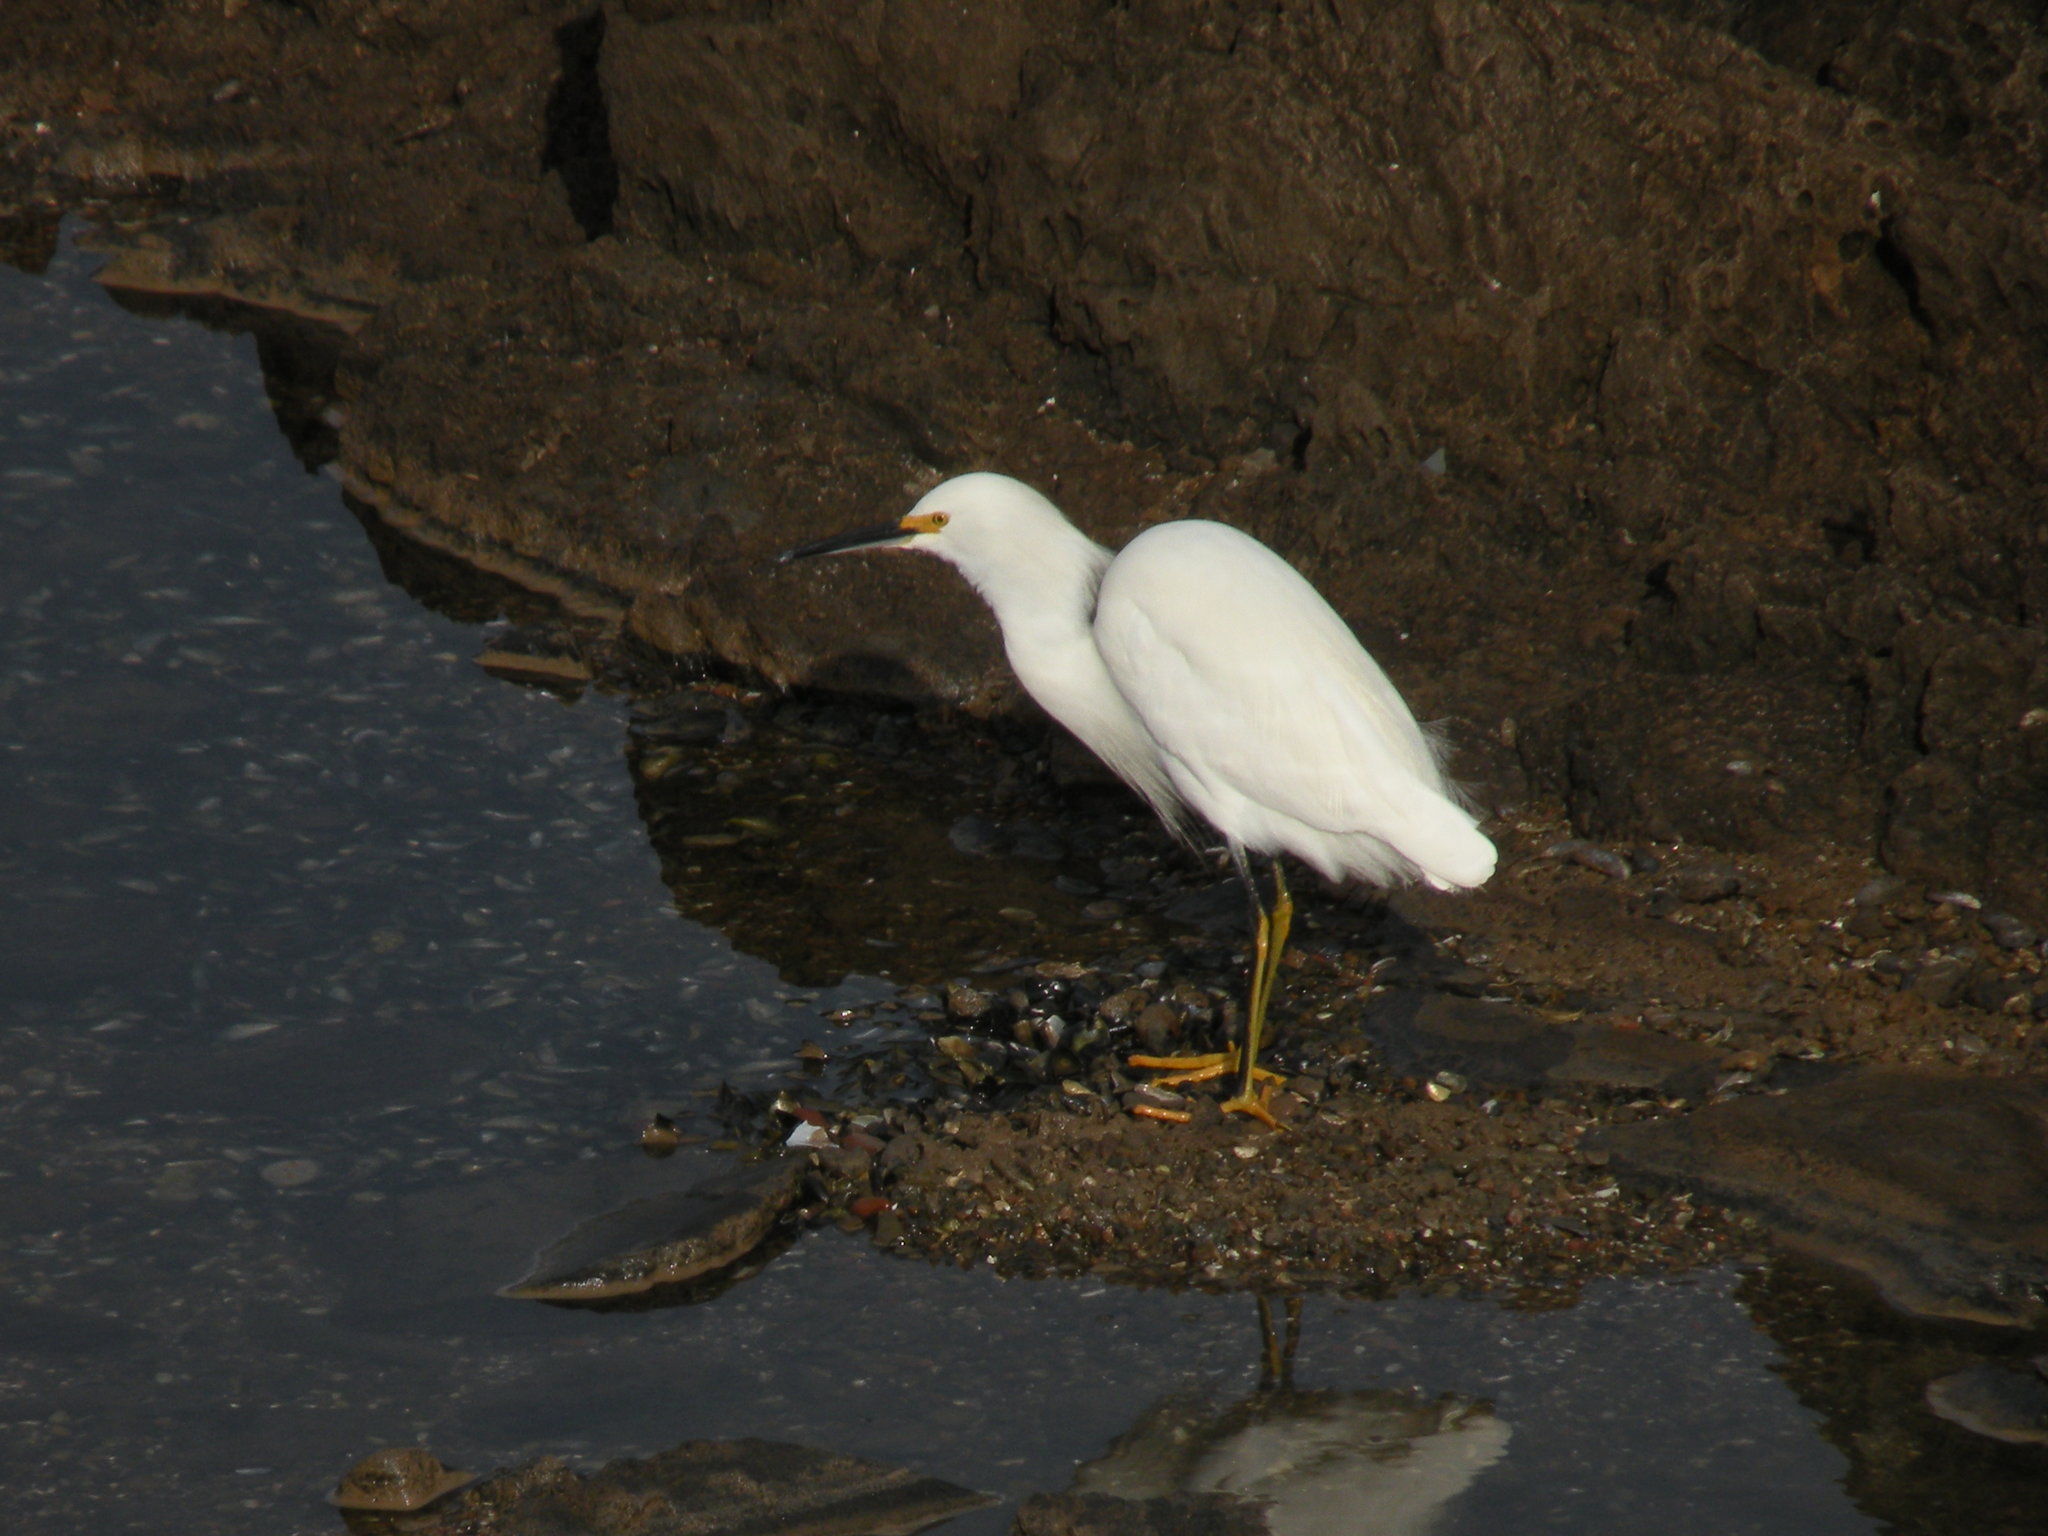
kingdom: Animalia
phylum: Chordata
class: Aves
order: Pelecaniformes
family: Ardeidae
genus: Egretta
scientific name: Egretta thula
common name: Snowy egret
